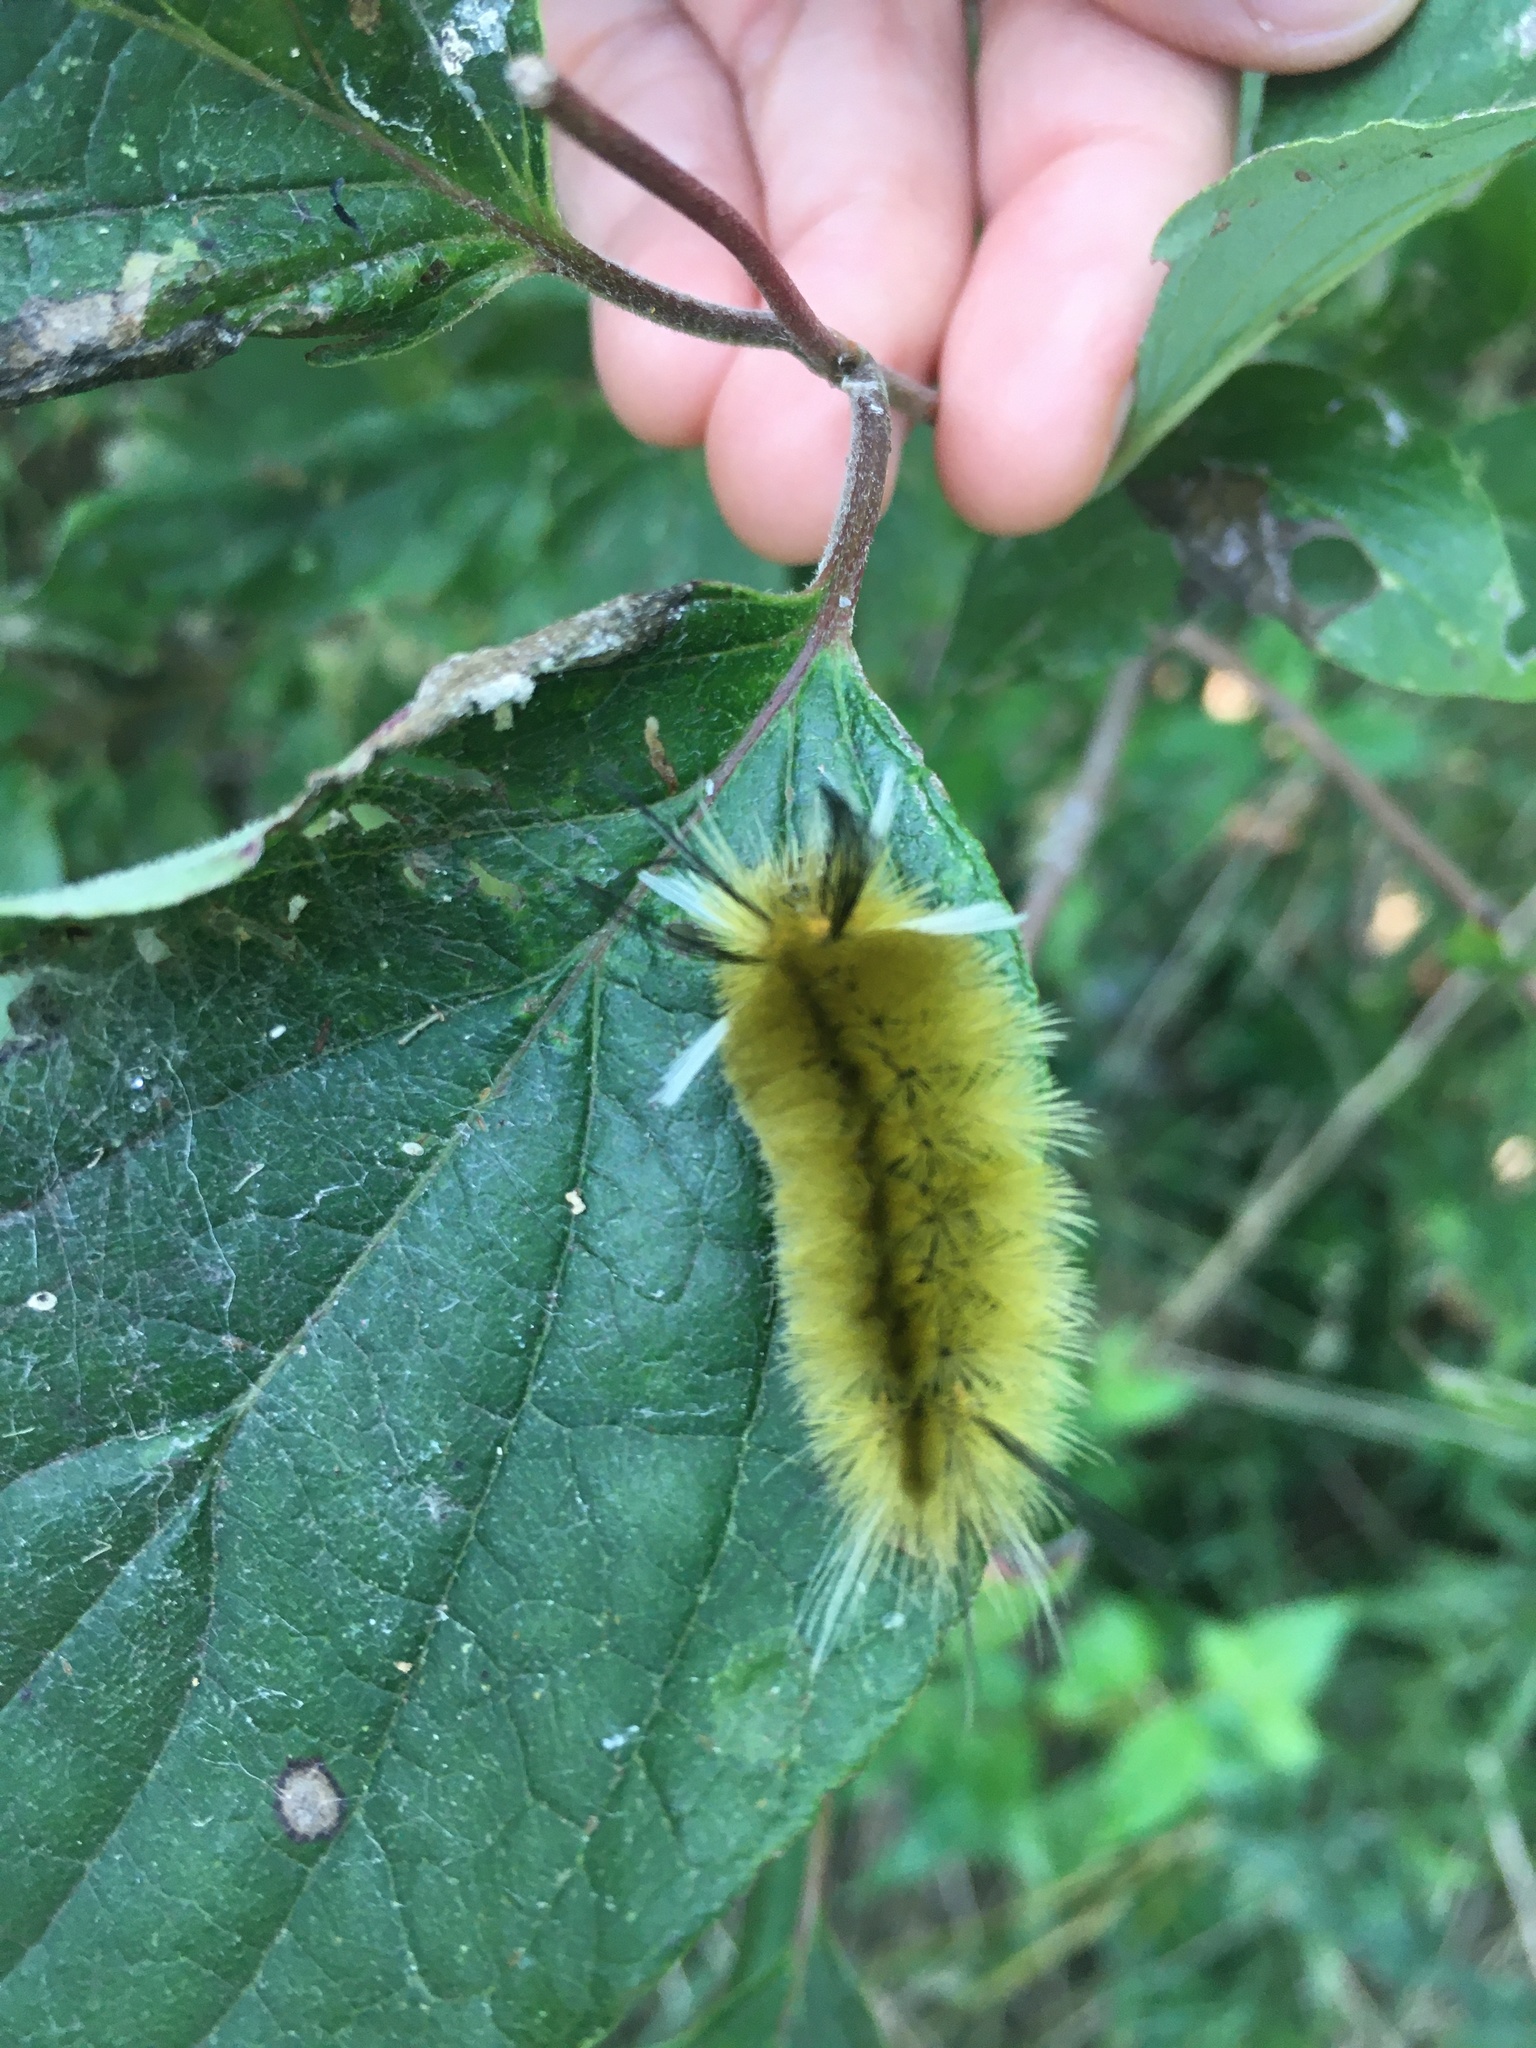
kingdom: Animalia
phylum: Arthropoda
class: Insecta
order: Lepidoptera
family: Erebidae
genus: Halysidota
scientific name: Halysidota tessellaris
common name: Banded tussock moth
